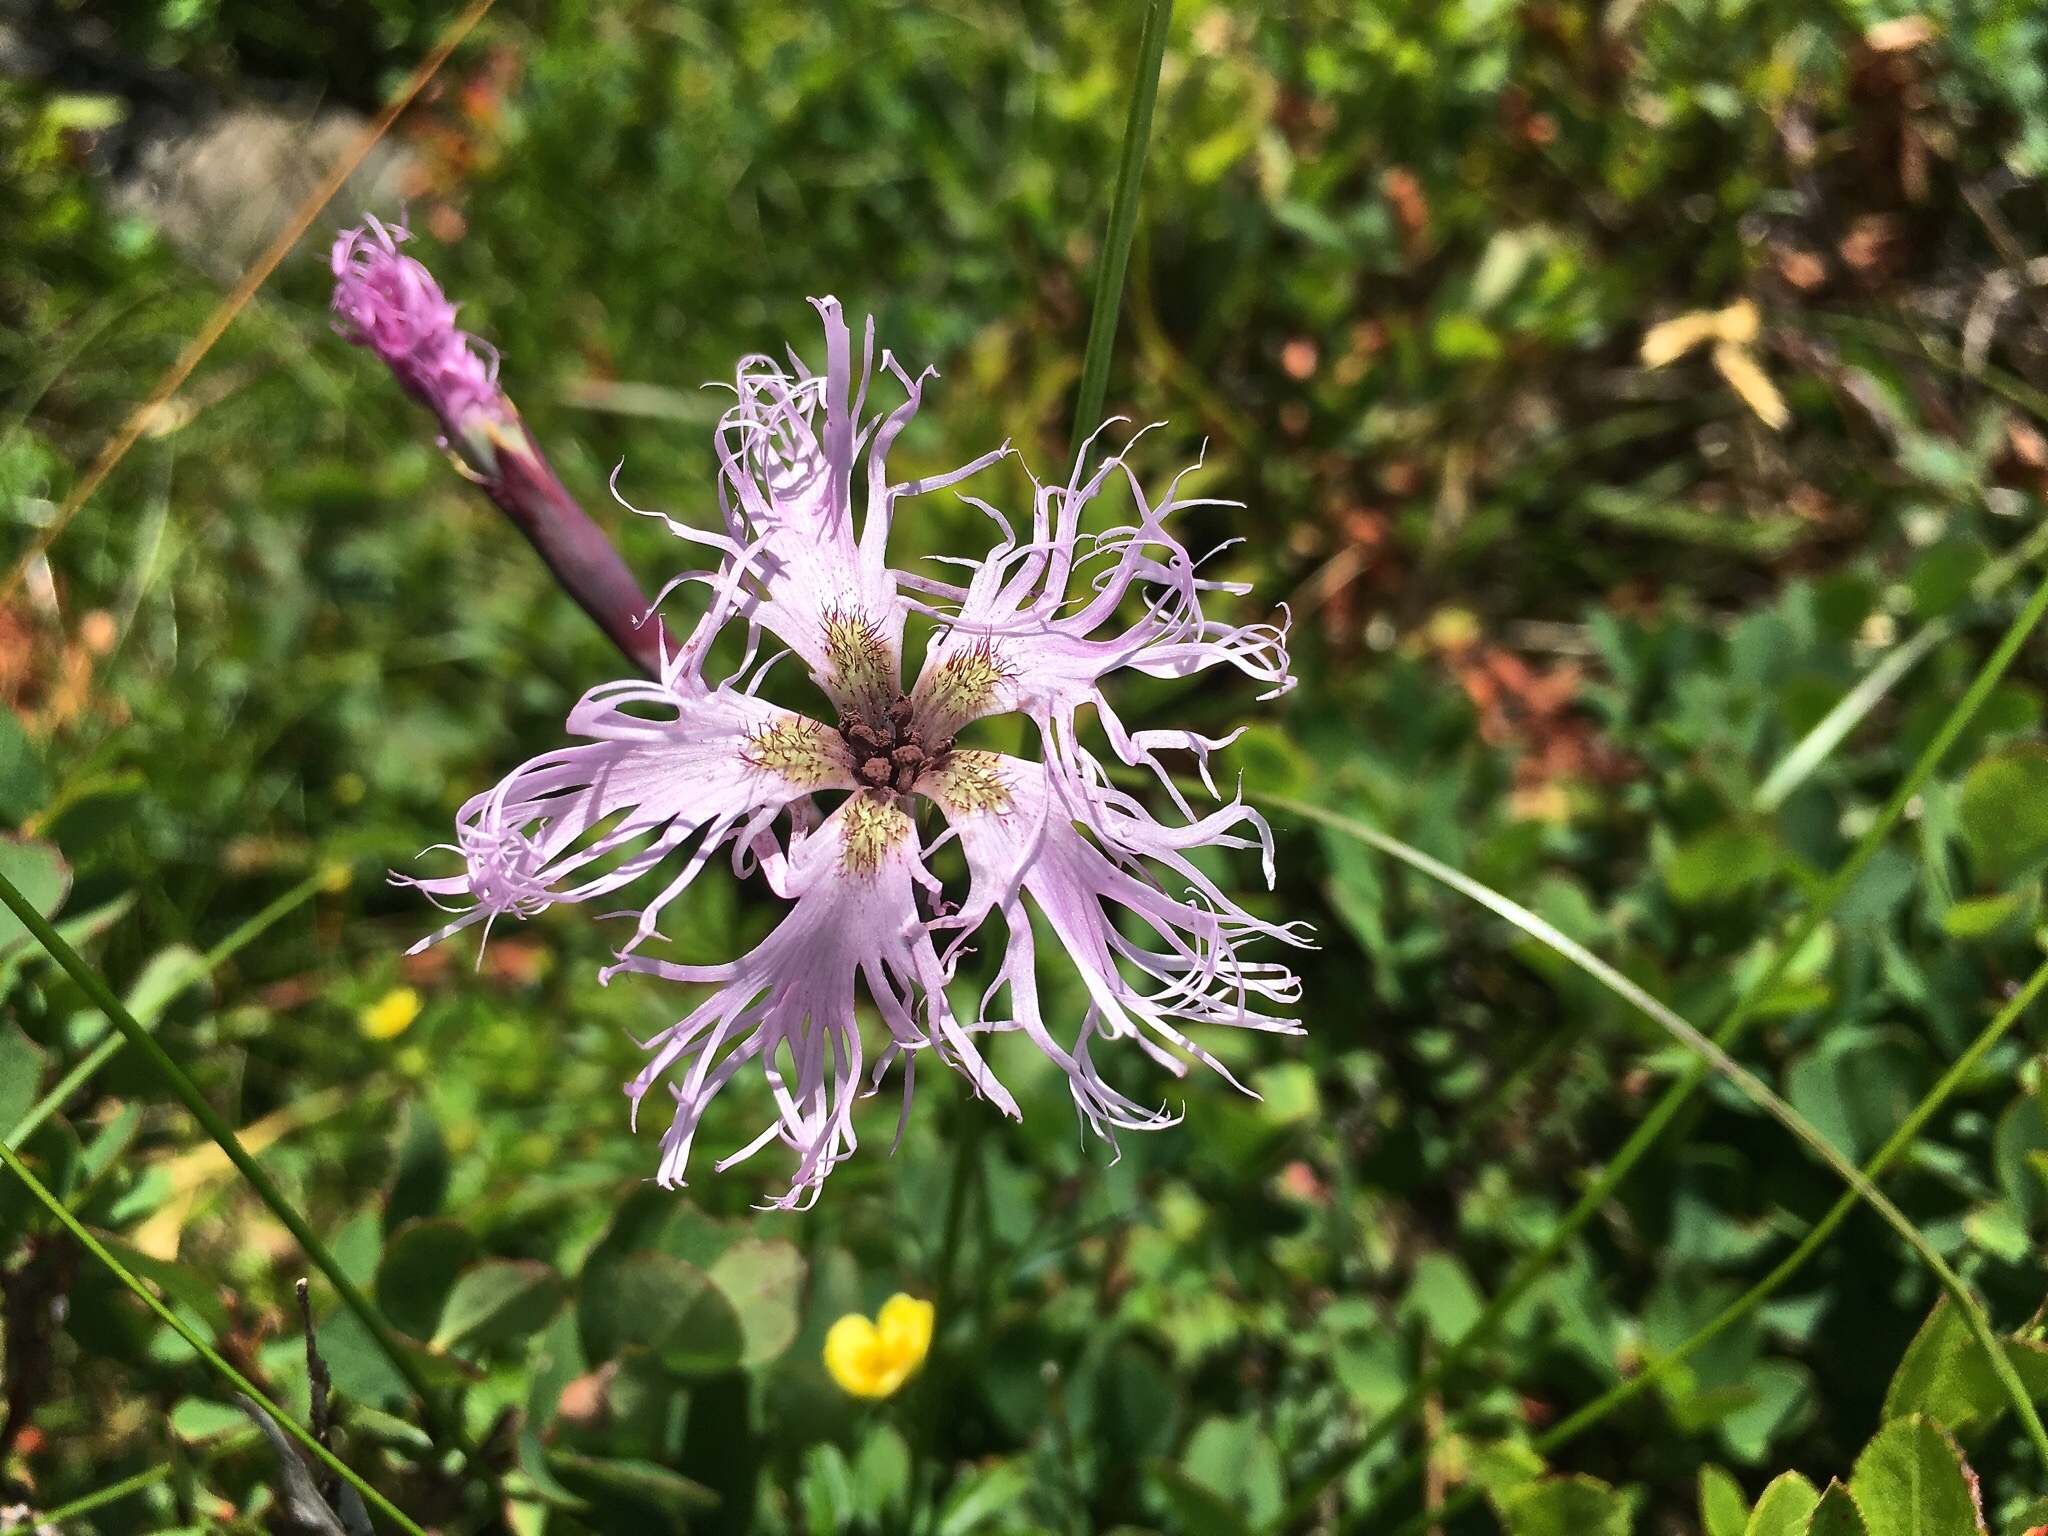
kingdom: Plantae
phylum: Tracheophyta
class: Magnoliopsida
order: Caryophyllales
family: Caryophyllaceae
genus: Dianthus
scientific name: Dianthus superbus
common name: Fringed pink
